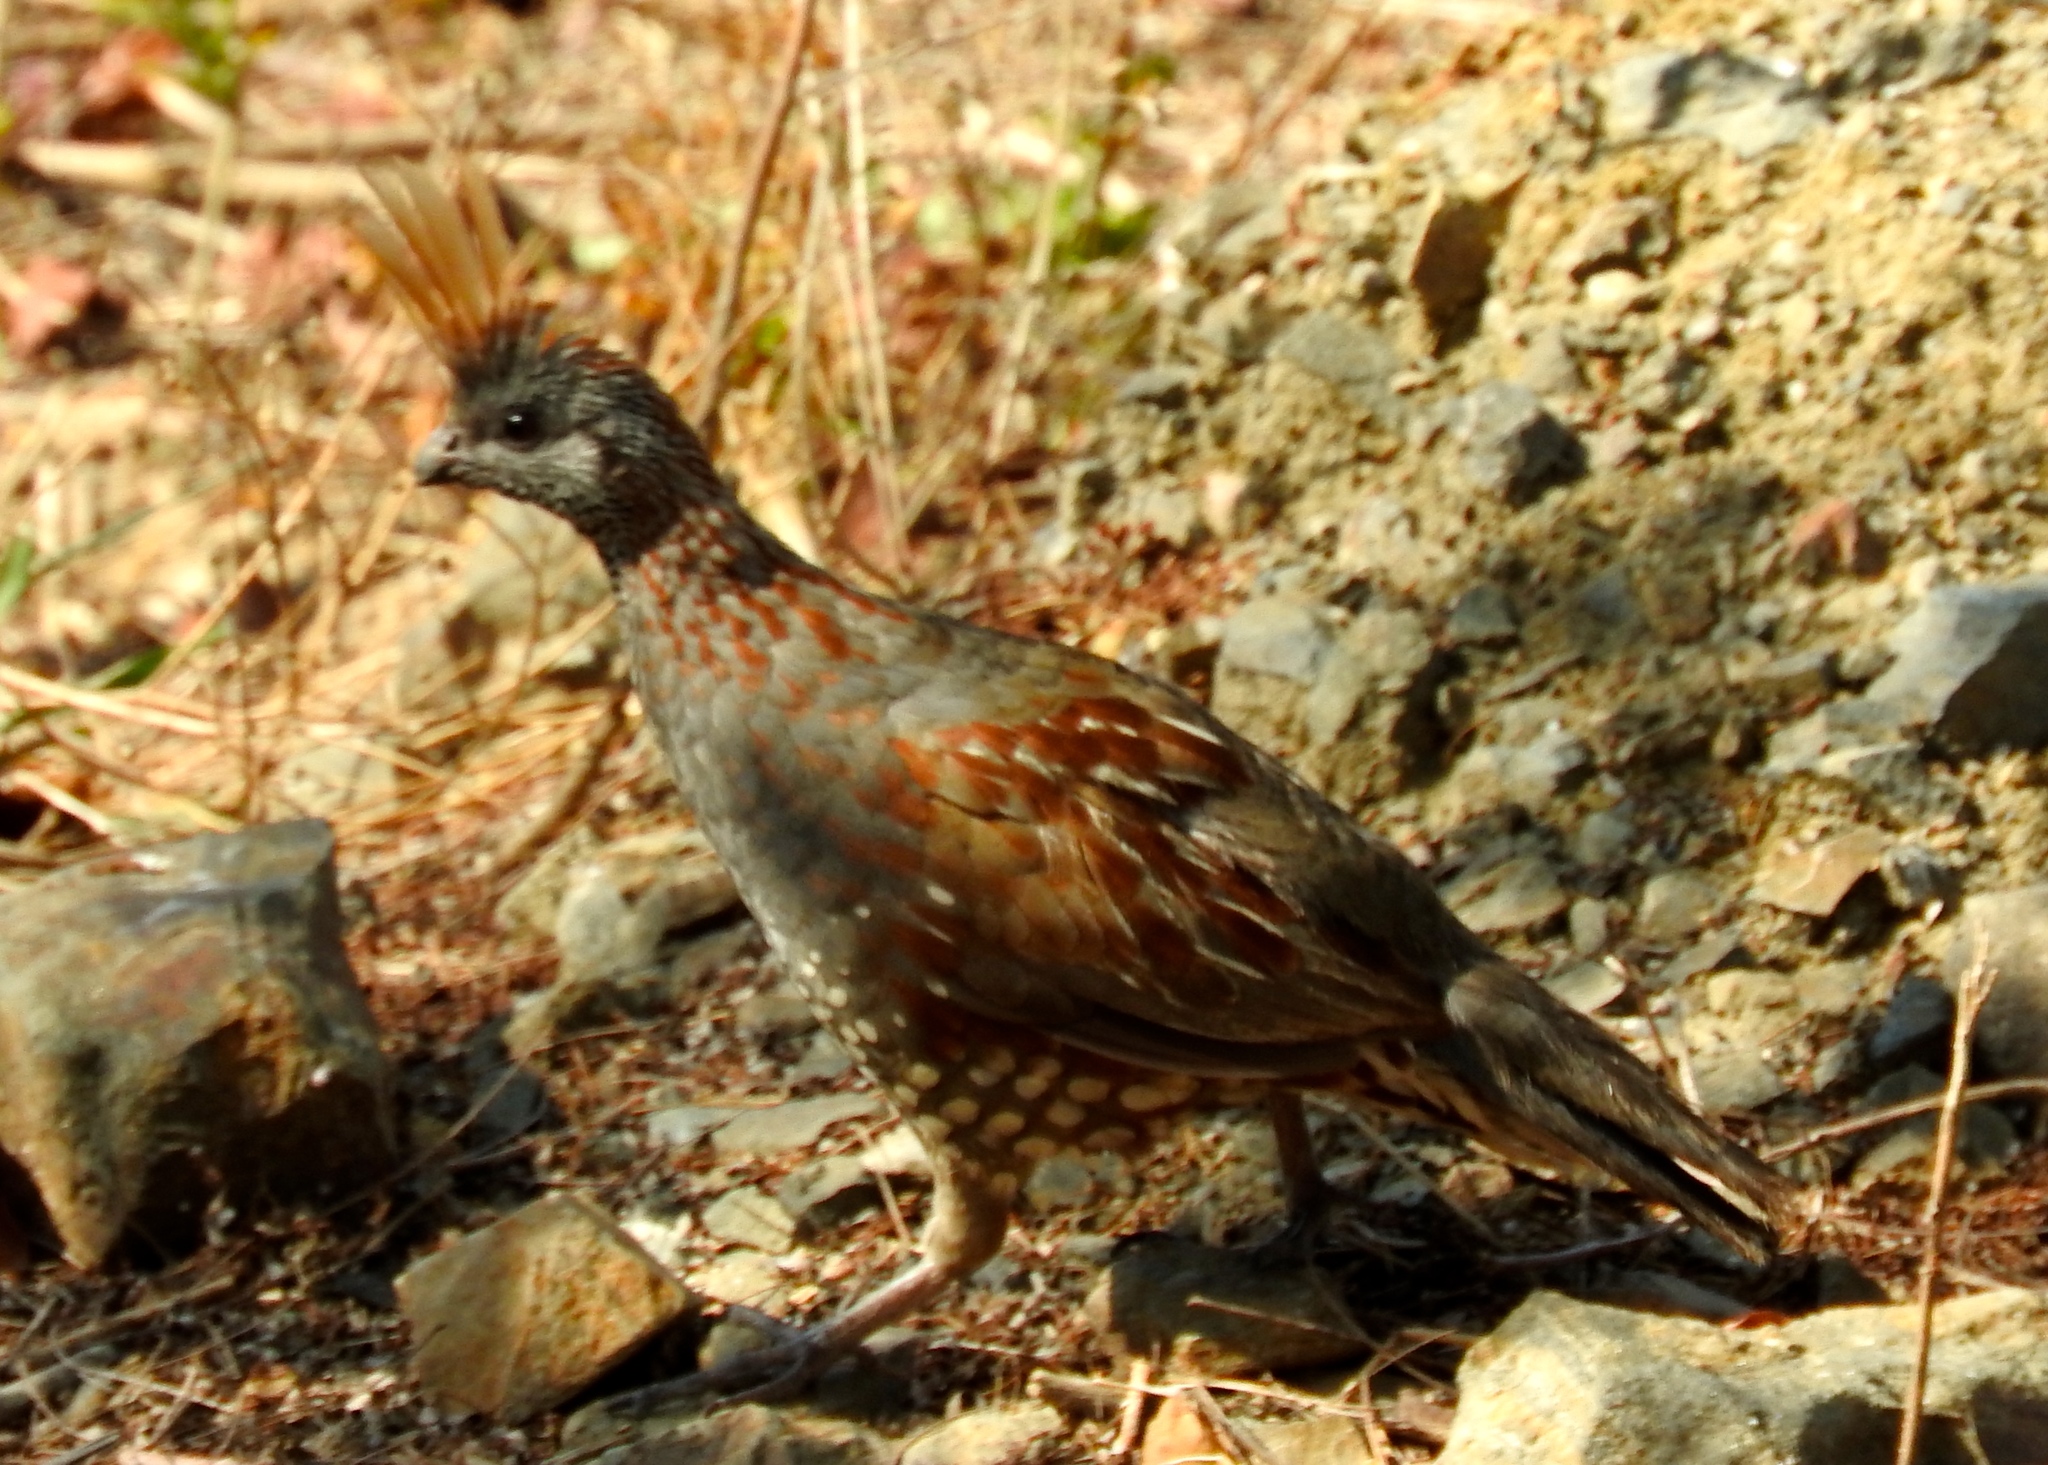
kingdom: Animalia
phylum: Chordata
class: Aves
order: Galliformes
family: Odontophoridae
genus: Callipepla
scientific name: Callipepla douglasii
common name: Elegant quail
